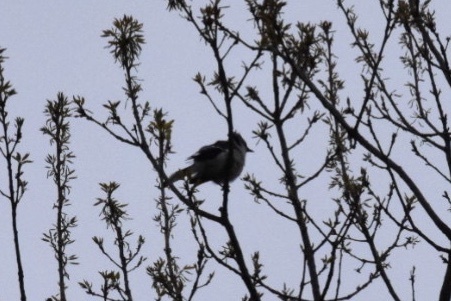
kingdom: Animalia
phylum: Chordata
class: Aves
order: Passeriformes
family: Corvidae
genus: Cyanocitta
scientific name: Cyanocitta cristata
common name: Blue jay
